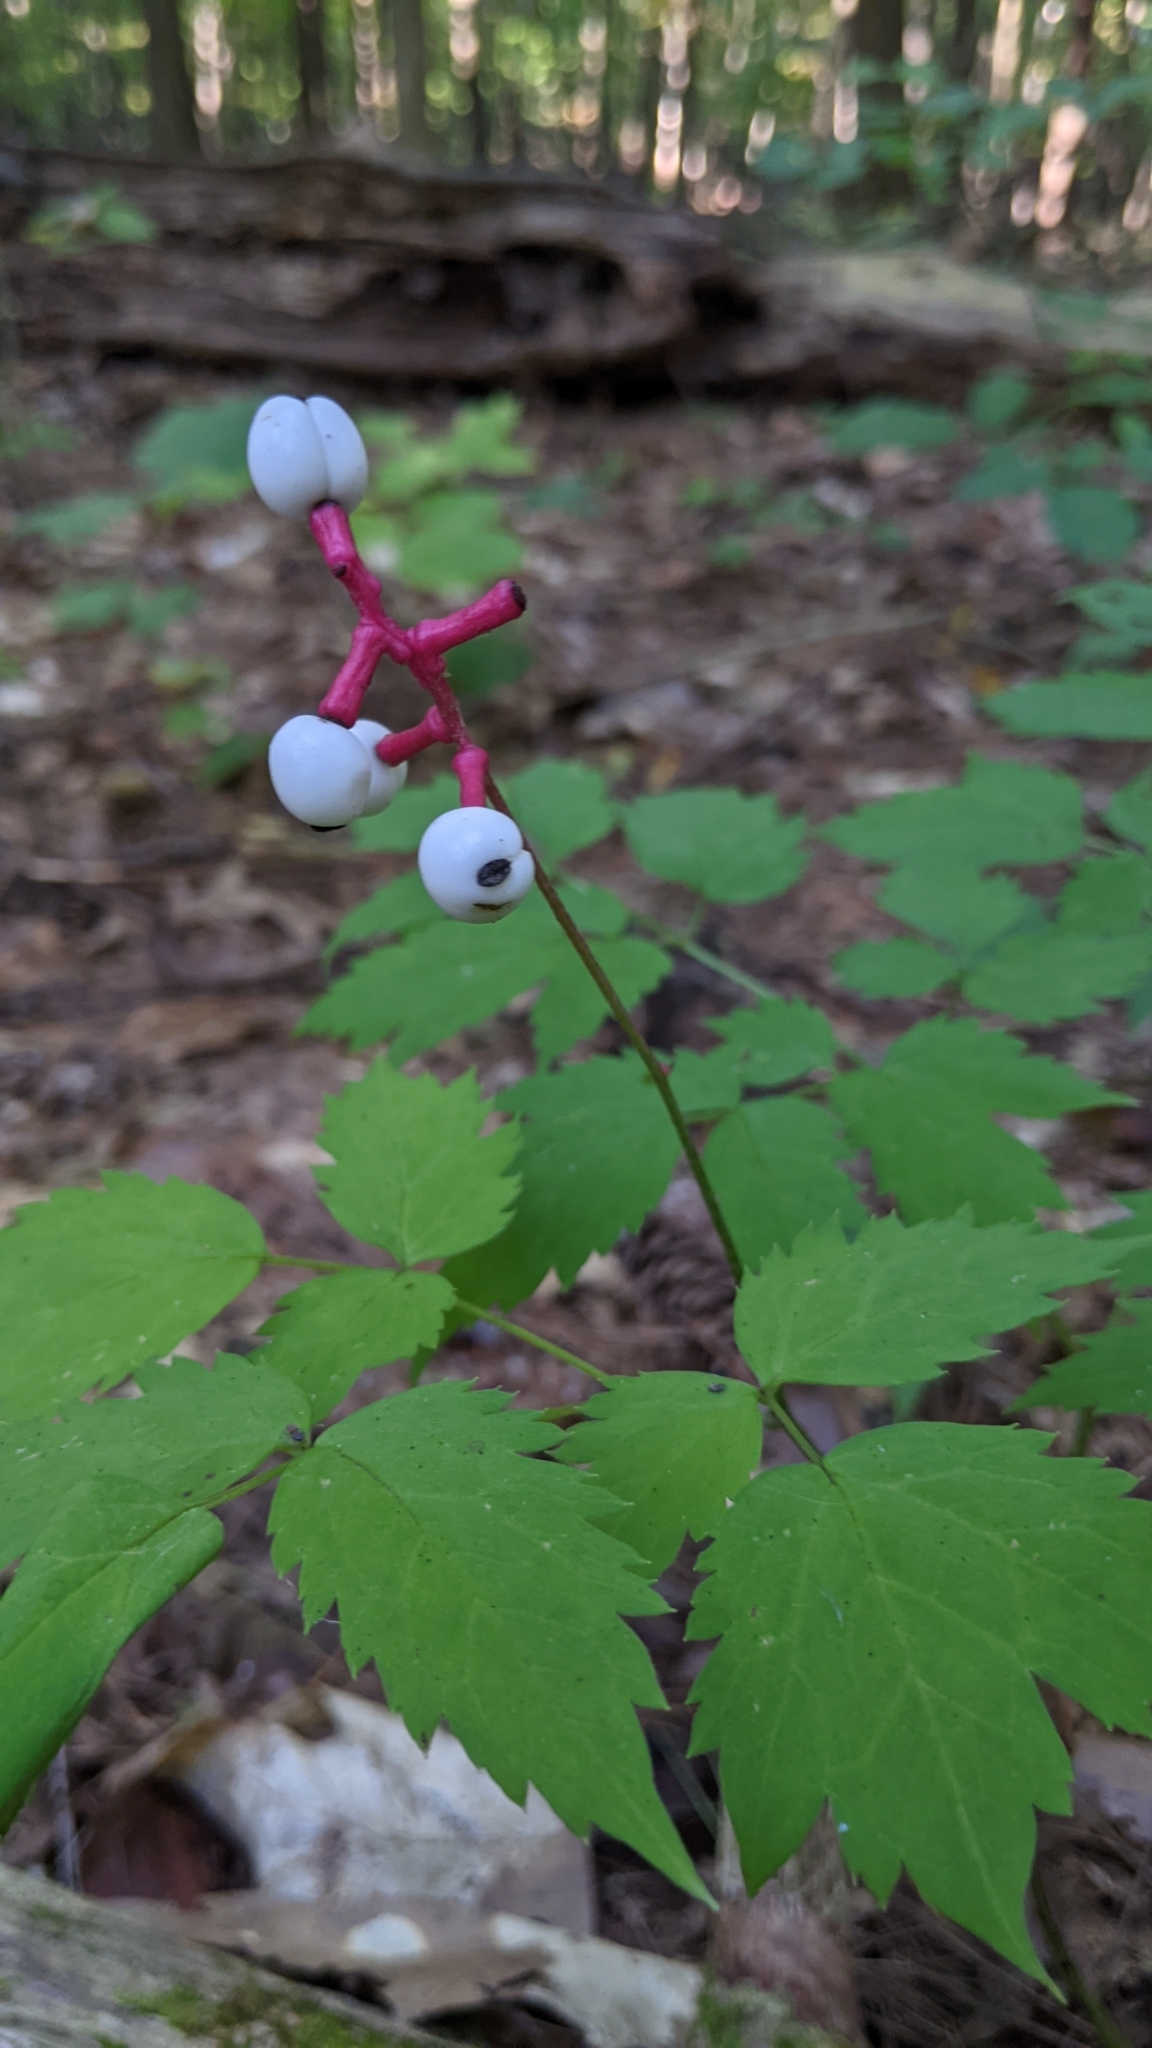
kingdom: Plantae
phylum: Tracheophyta
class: Magnoliopsida
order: Ranunculales
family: Ranunculaceae
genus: Actaea
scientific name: Actaea pachypoda
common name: Doll's-eyes
